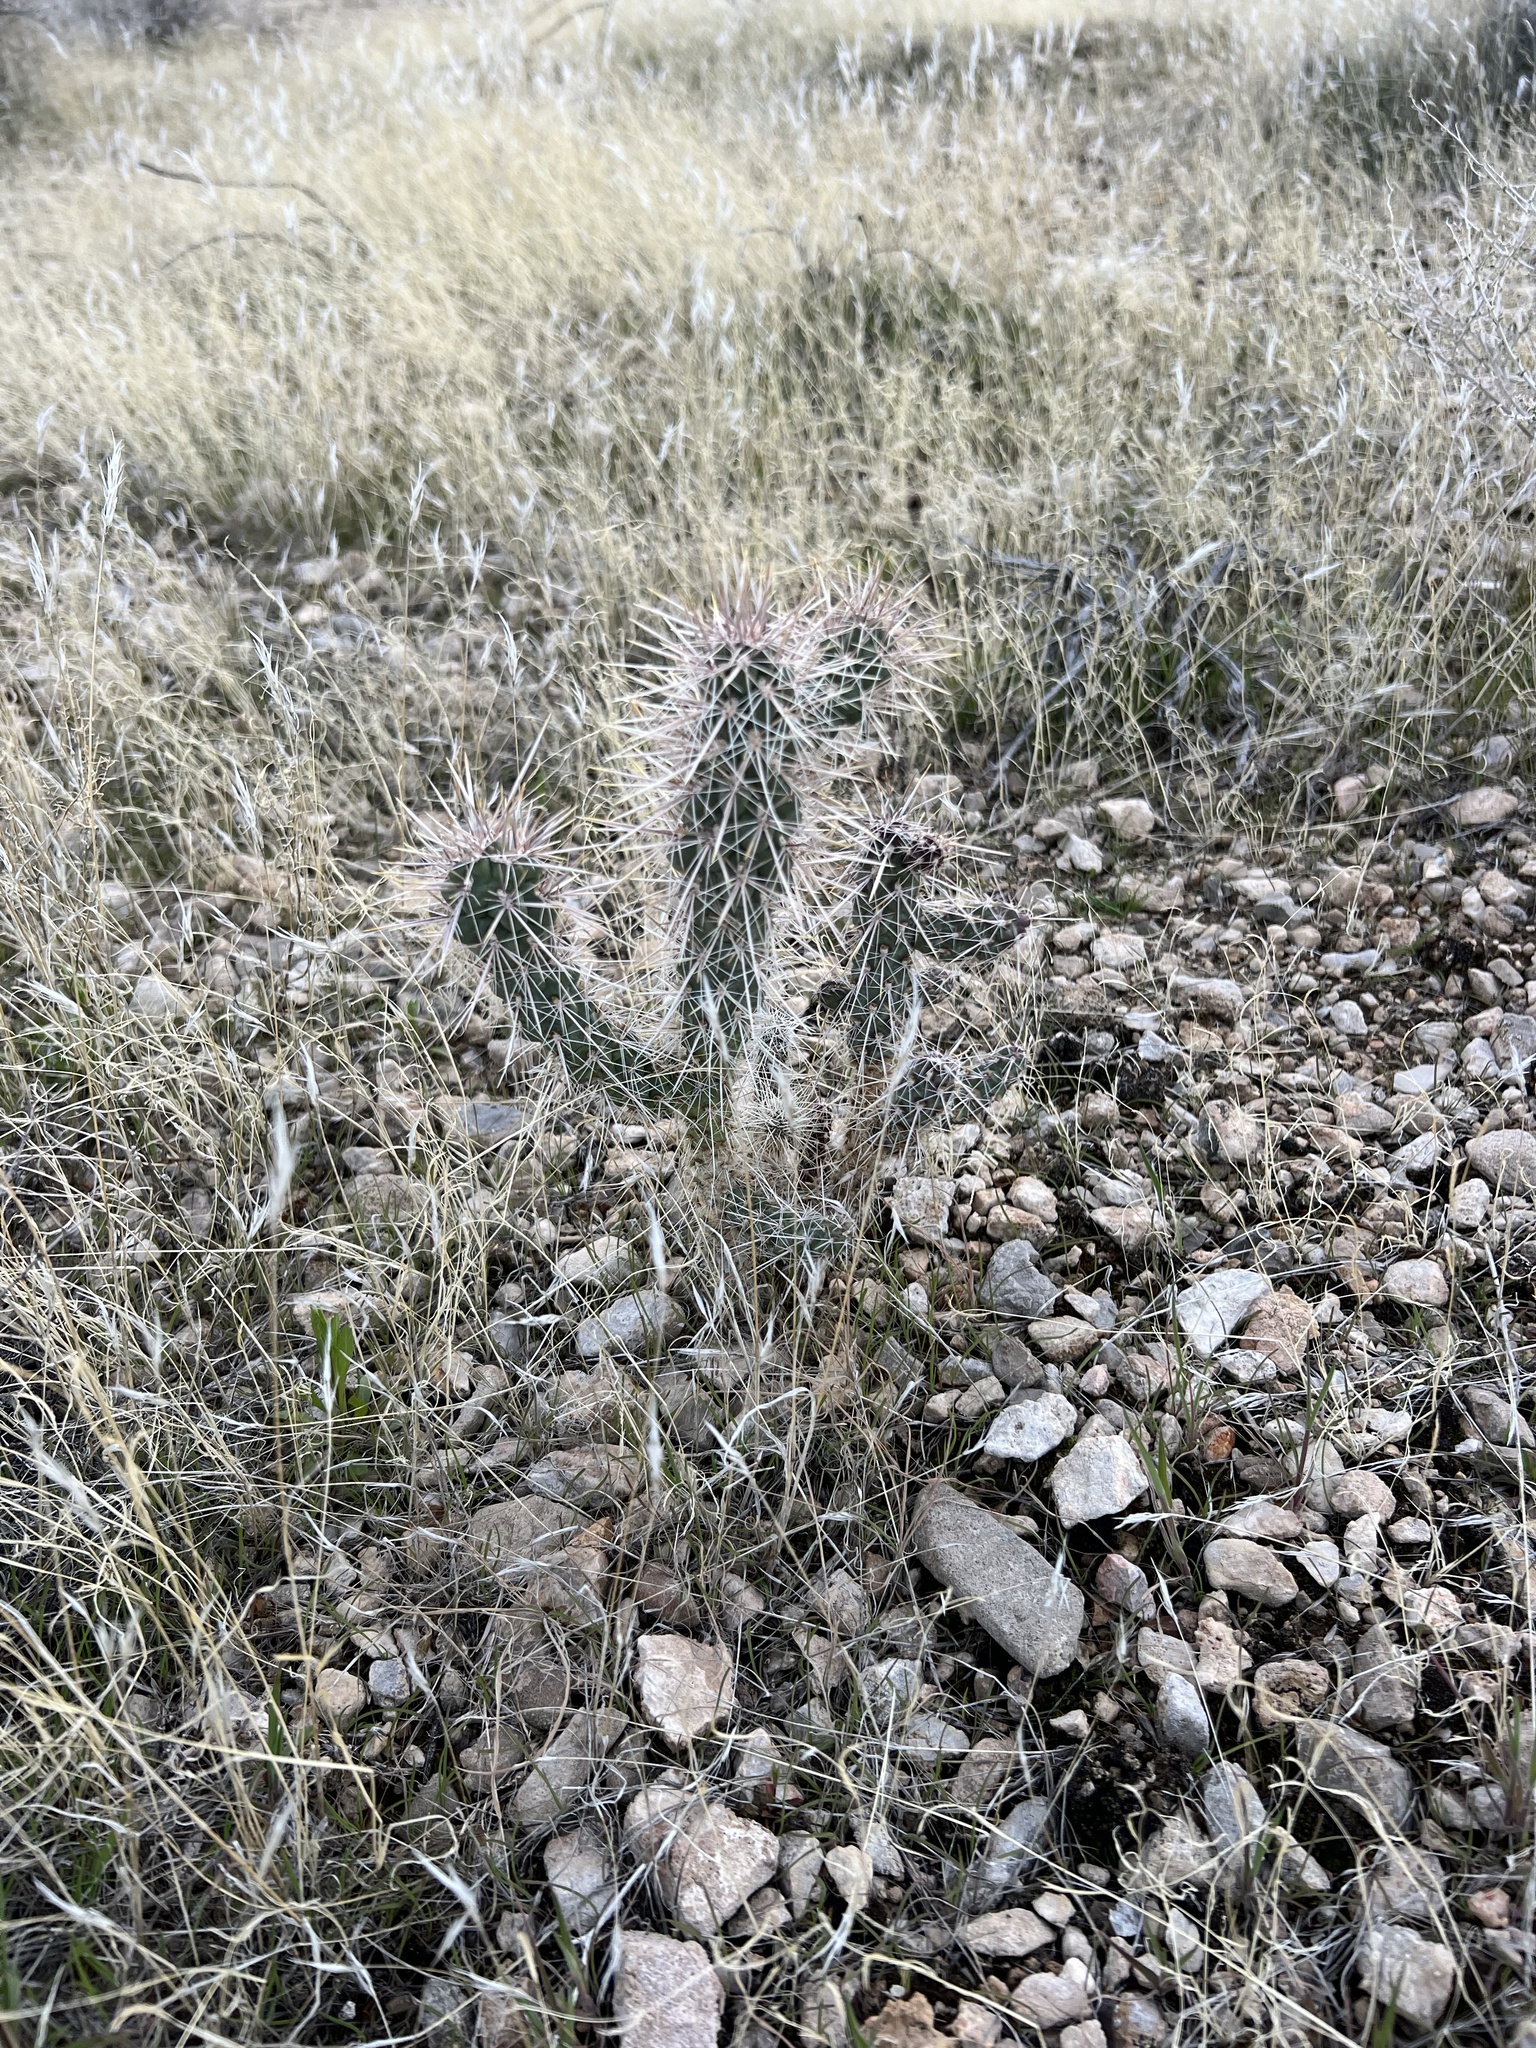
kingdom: Plantae
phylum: Tracheophyta
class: Magnoliopsida
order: Caryophyllales
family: Cactaceae
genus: Cylindropuntia
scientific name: Cylindropuntia echinocarpa
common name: Ground cholla
